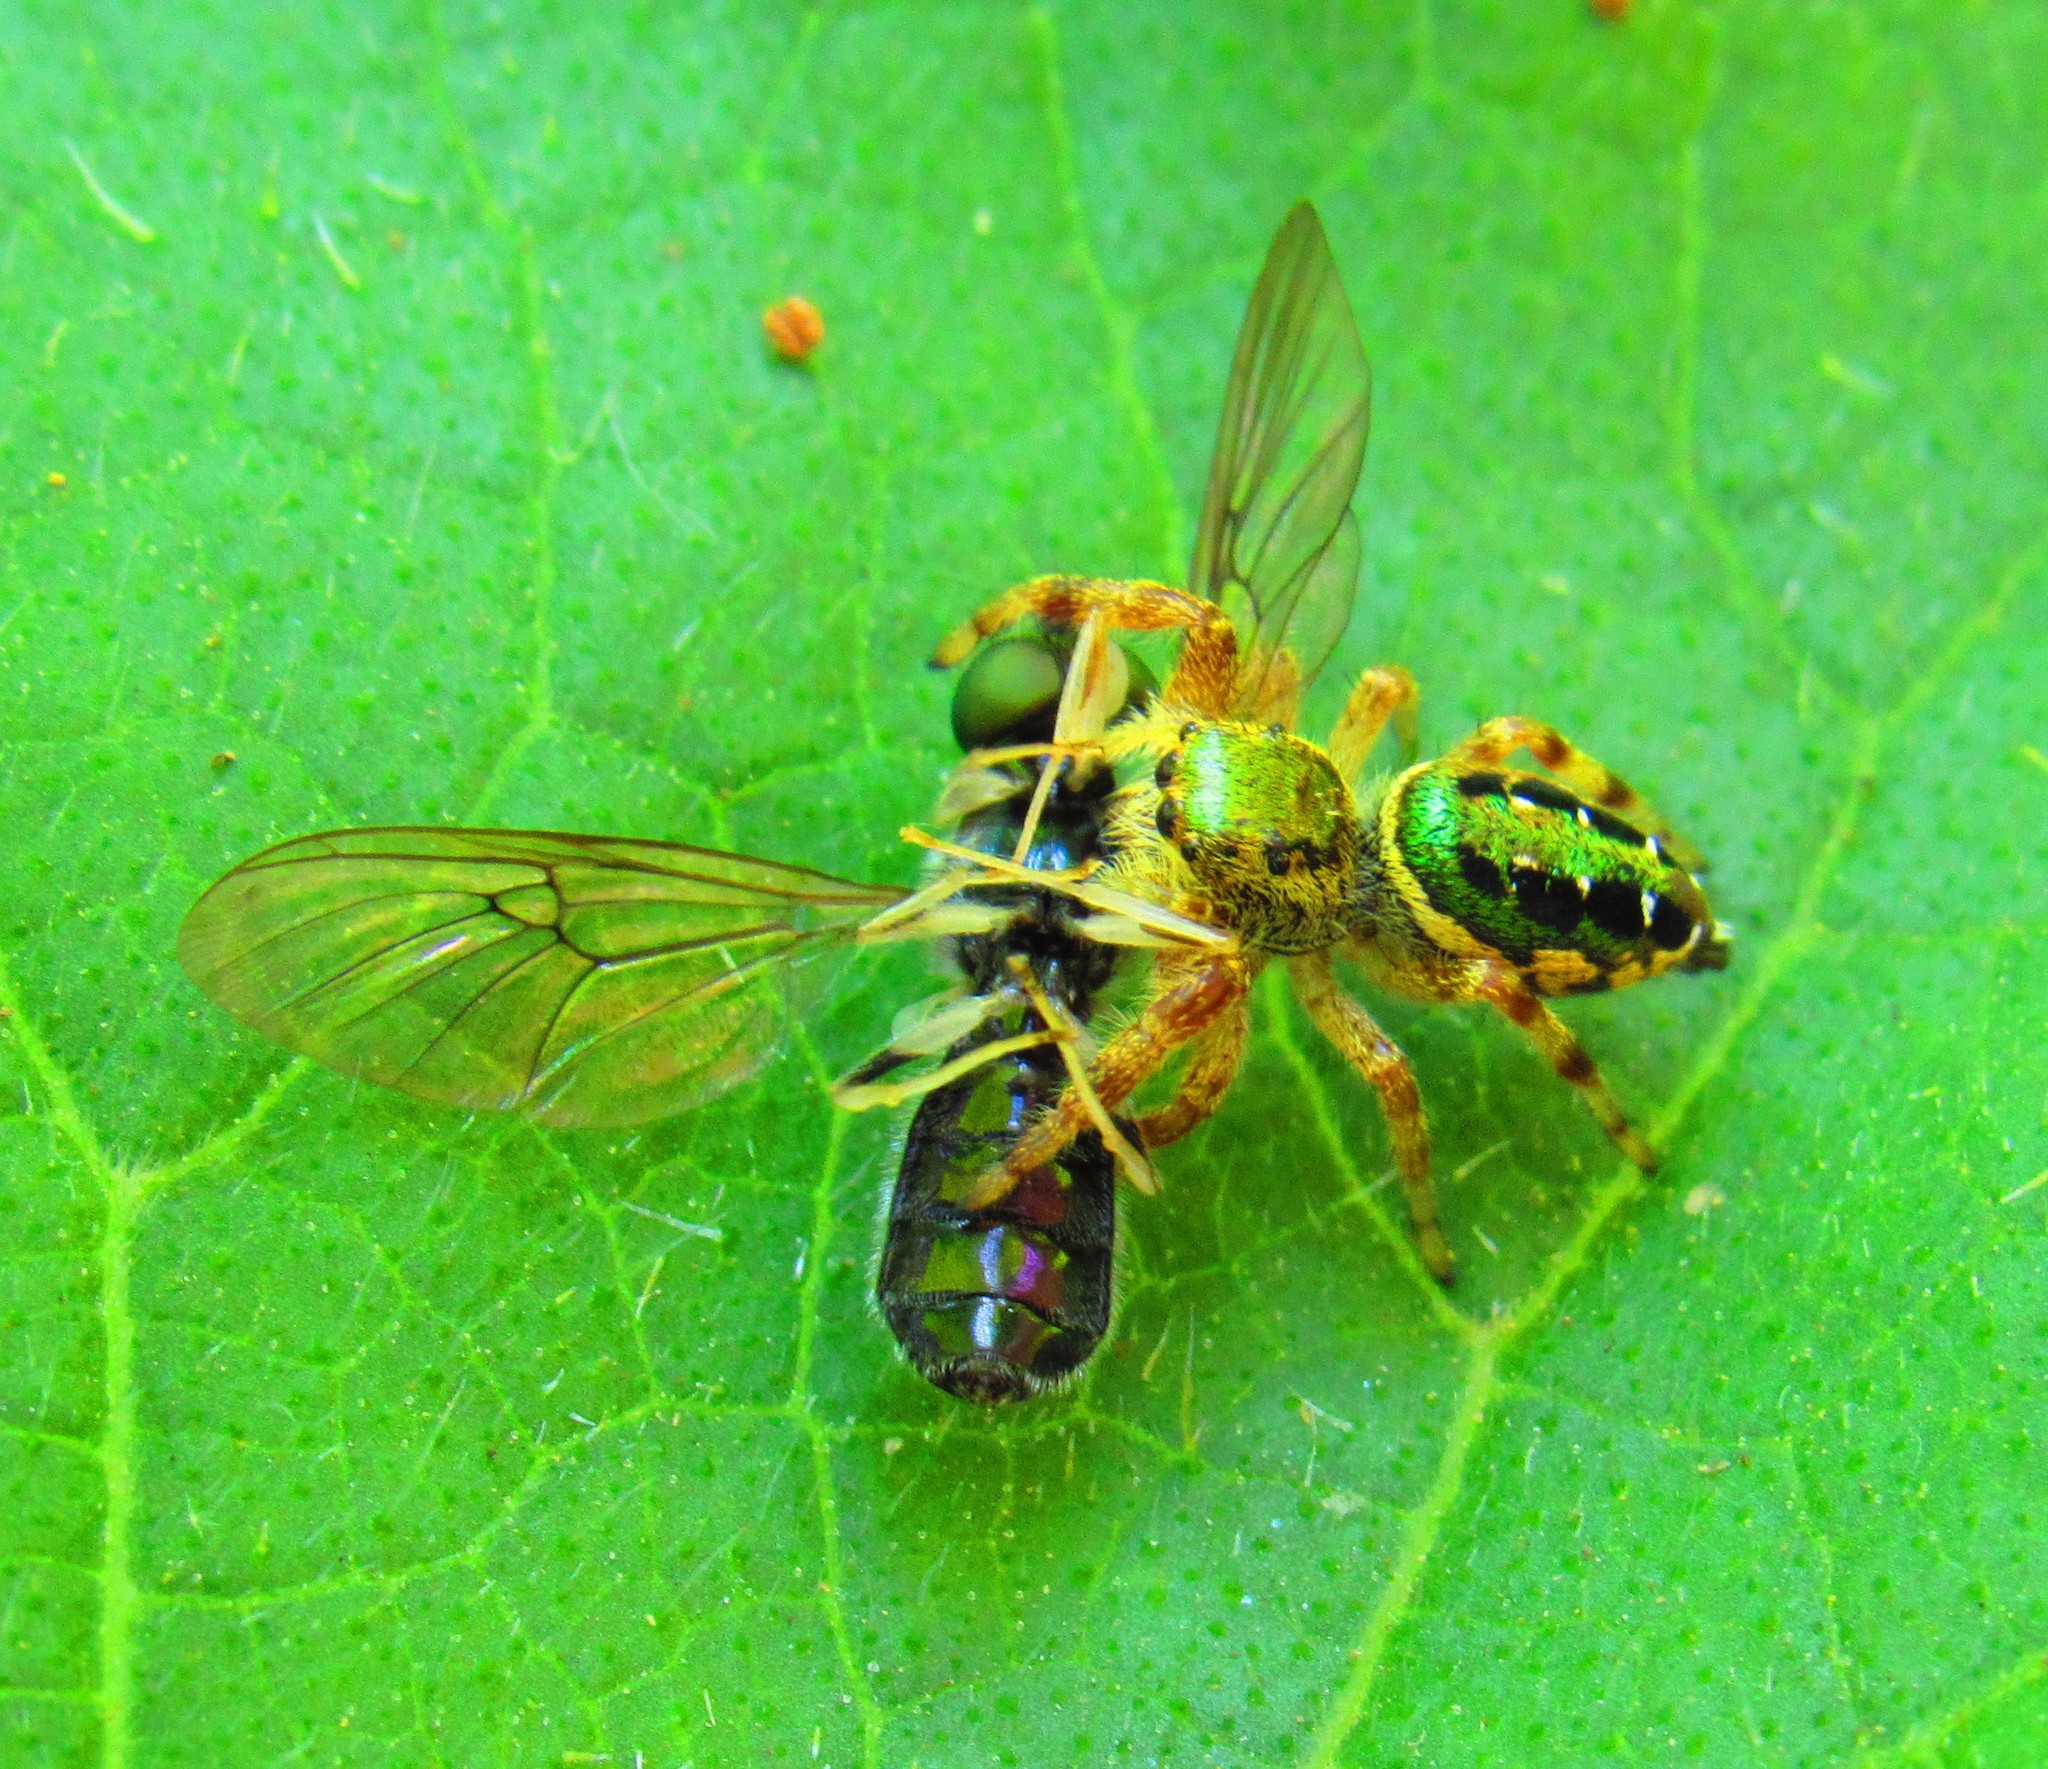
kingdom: Animalia
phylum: Arthropoda
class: Arachnida
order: Araneae
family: Salticidae
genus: Paraphidippus
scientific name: Paraphidippus aurantius
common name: Jumping spiders
